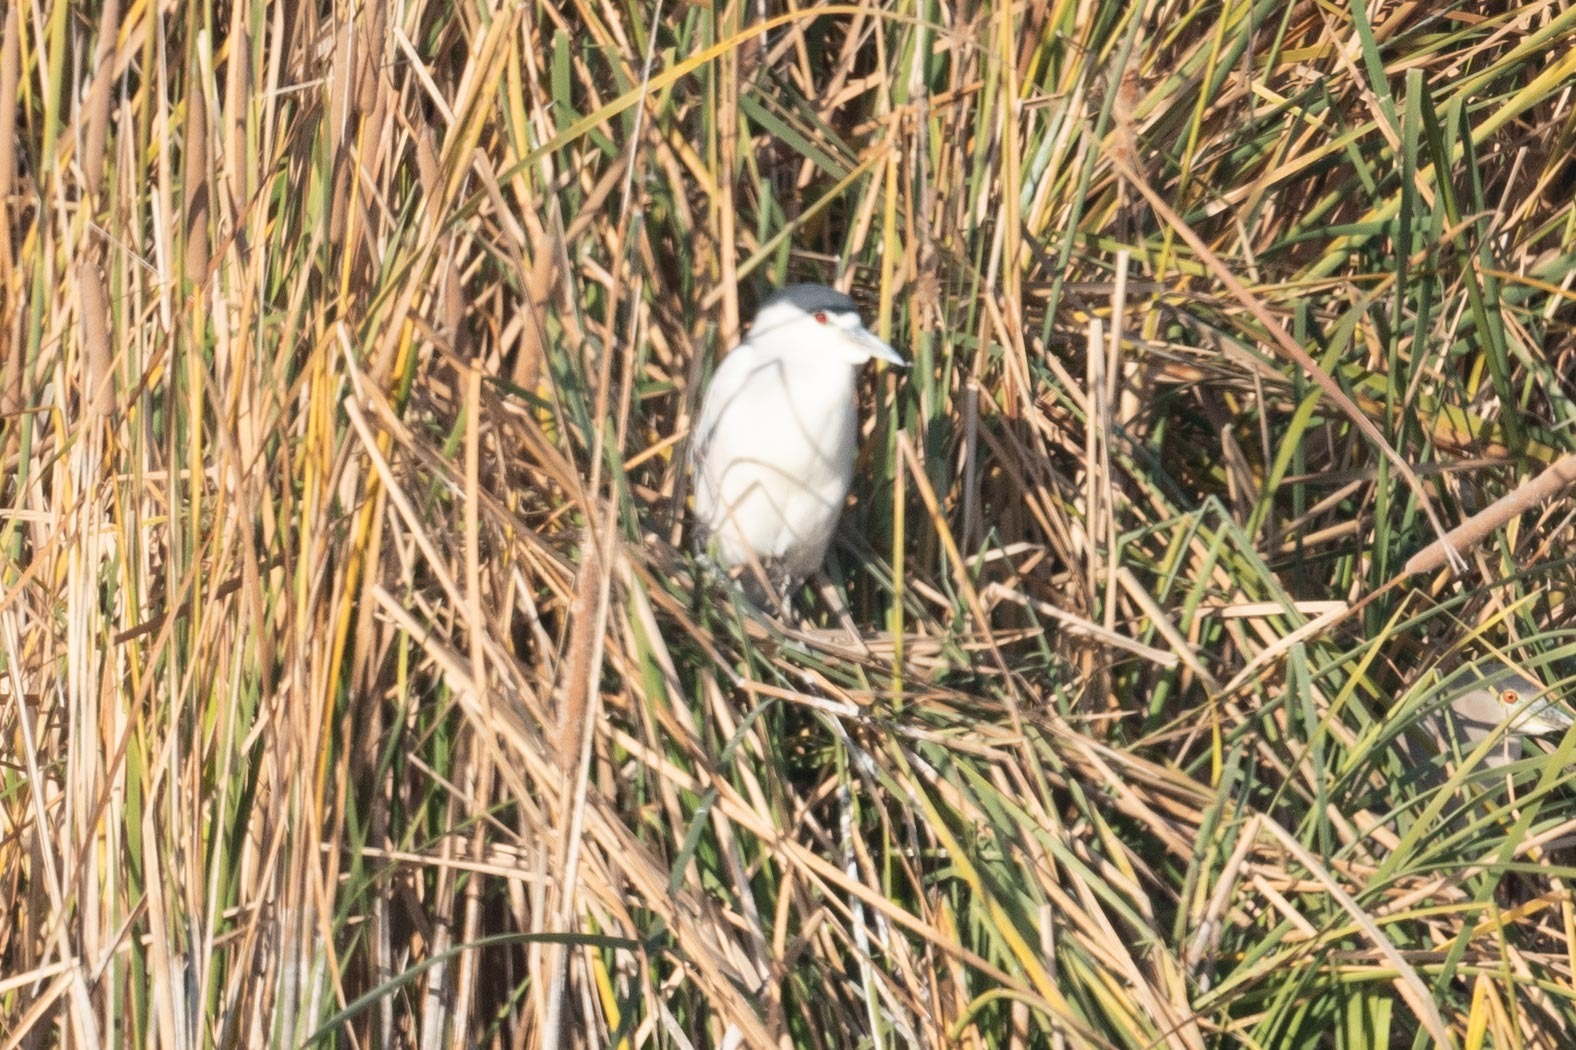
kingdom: Animalia
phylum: Chordata
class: Aves
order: Pelecaniformes
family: Ardeidae
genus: Nycticorax
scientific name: Nycticorax nycticorax
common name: Black-crowned night heron
